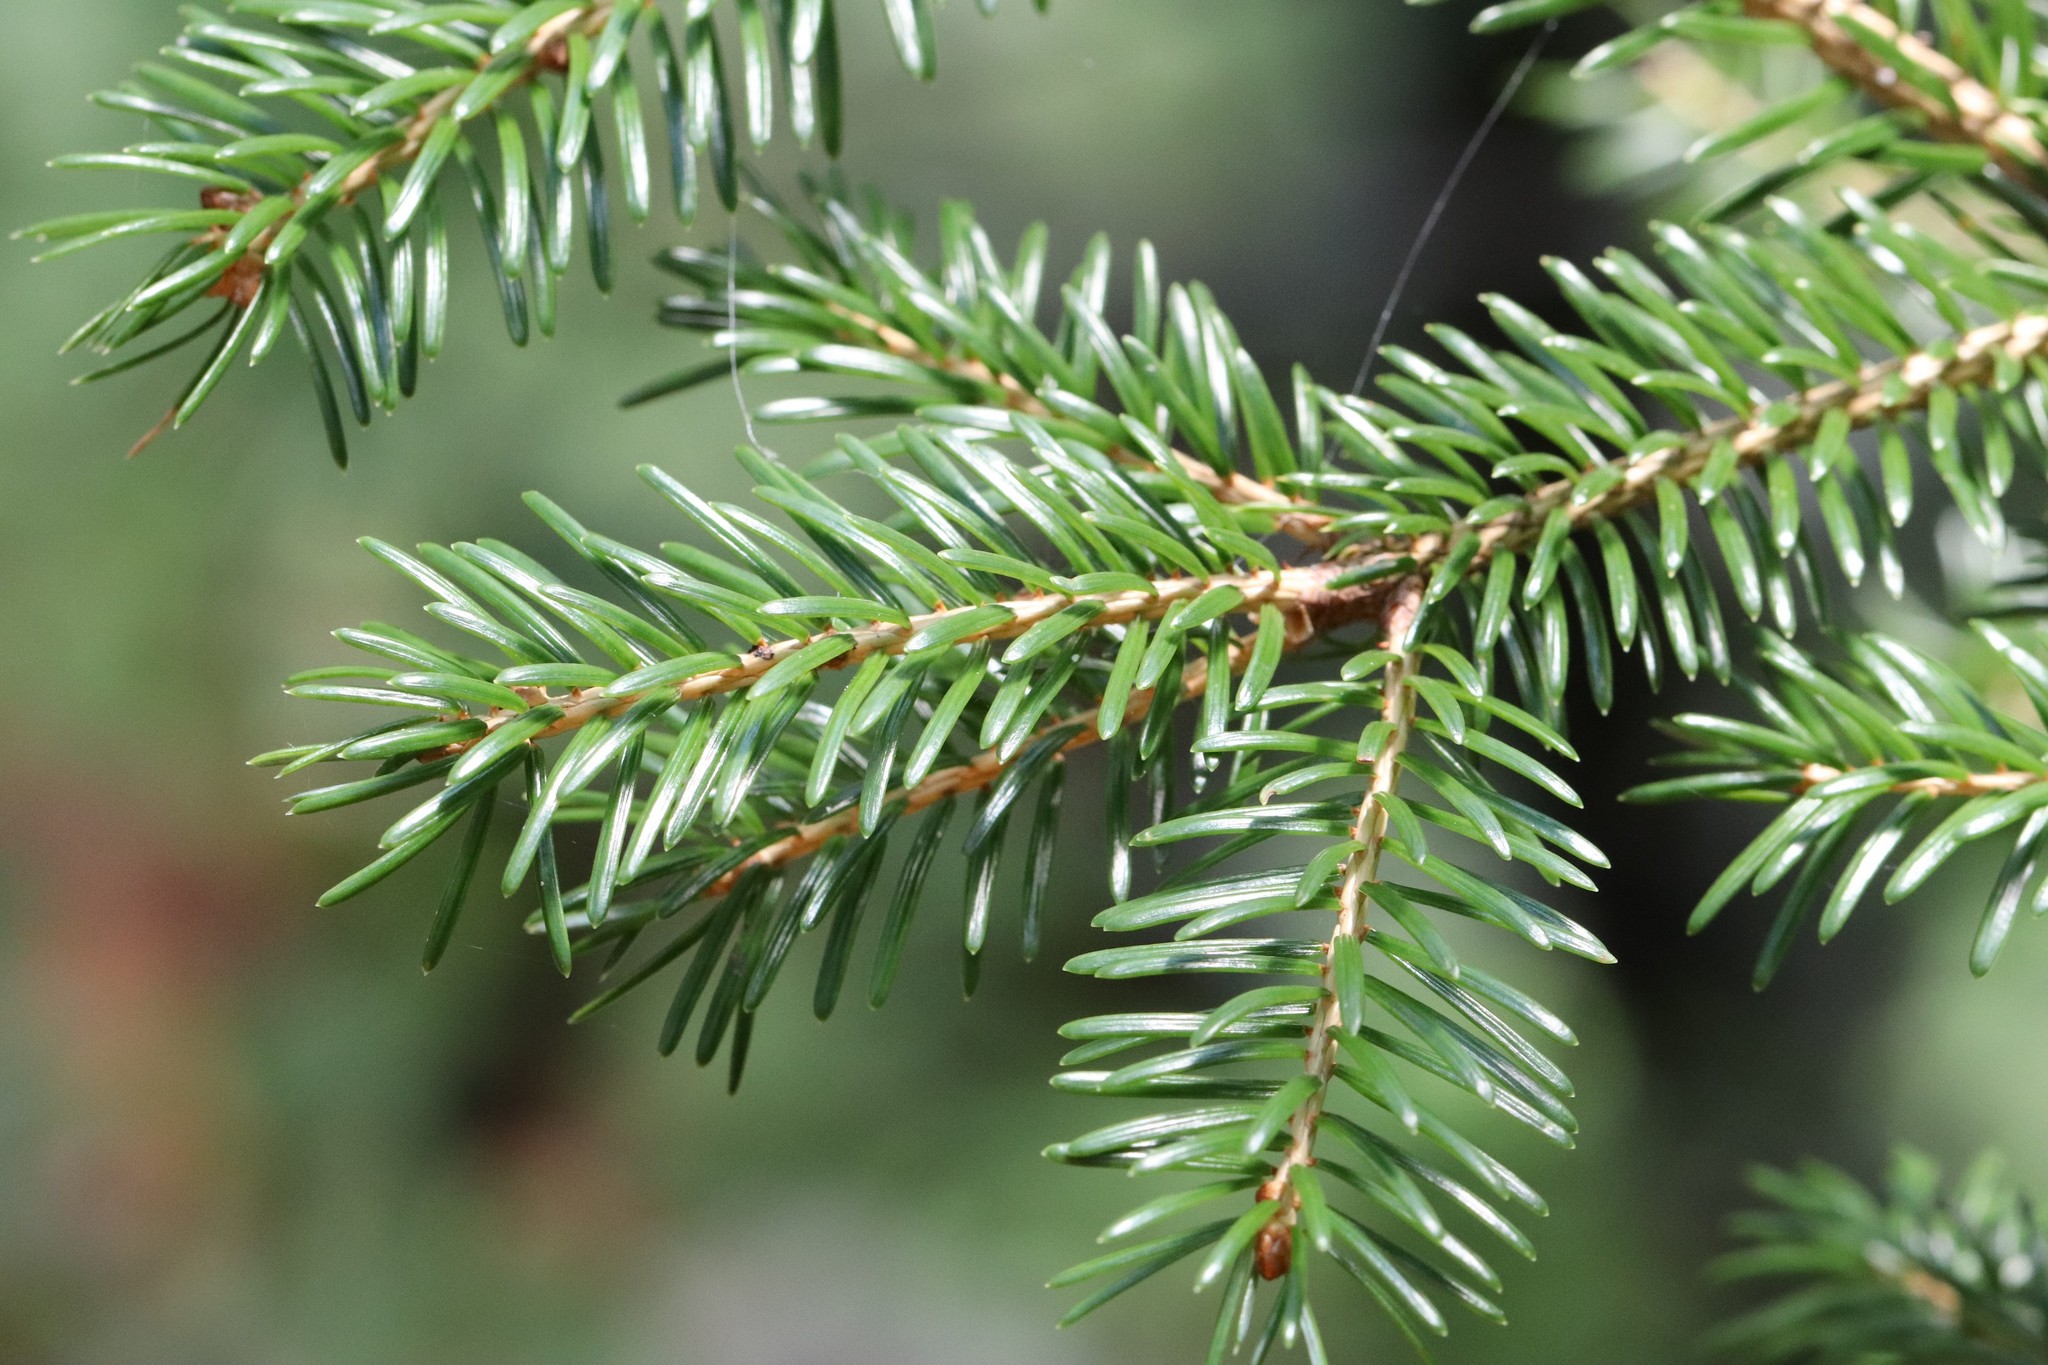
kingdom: Plantae
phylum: Tracheophyta
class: Pinopsida
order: Pinales
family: Pinaceae
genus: Picea
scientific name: Picea jezoensis
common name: Yeddo spruce
